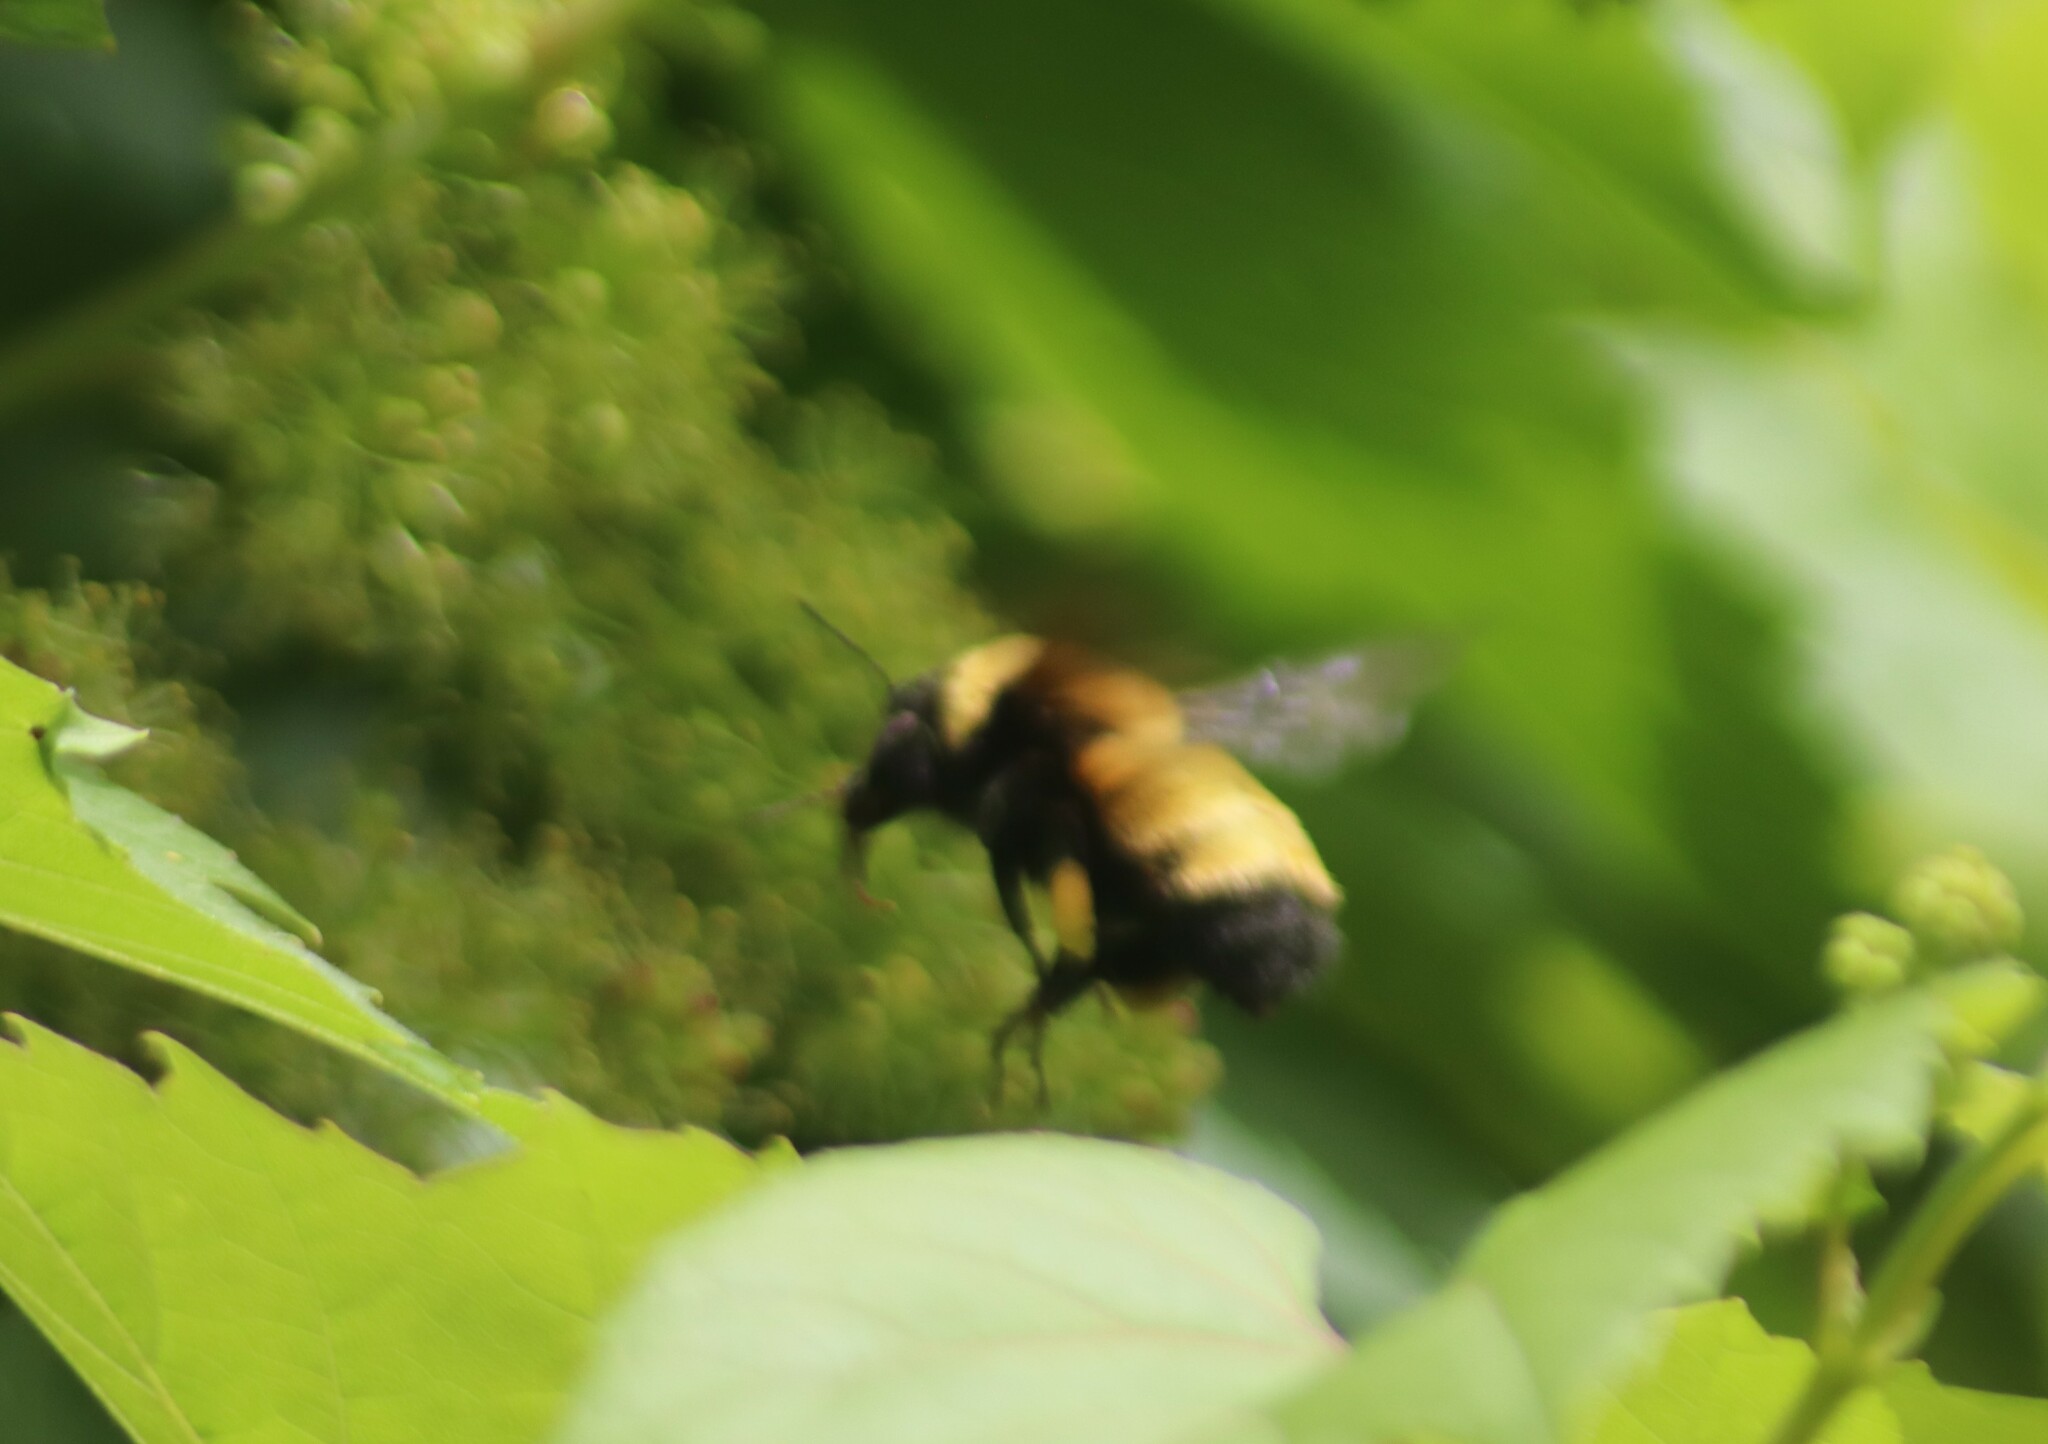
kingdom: Animalia
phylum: Arthropoda
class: Insecta
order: Hymenoptera
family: Apidae
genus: Bombus
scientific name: Bombus nevadensis
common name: Nevada bumble bee
